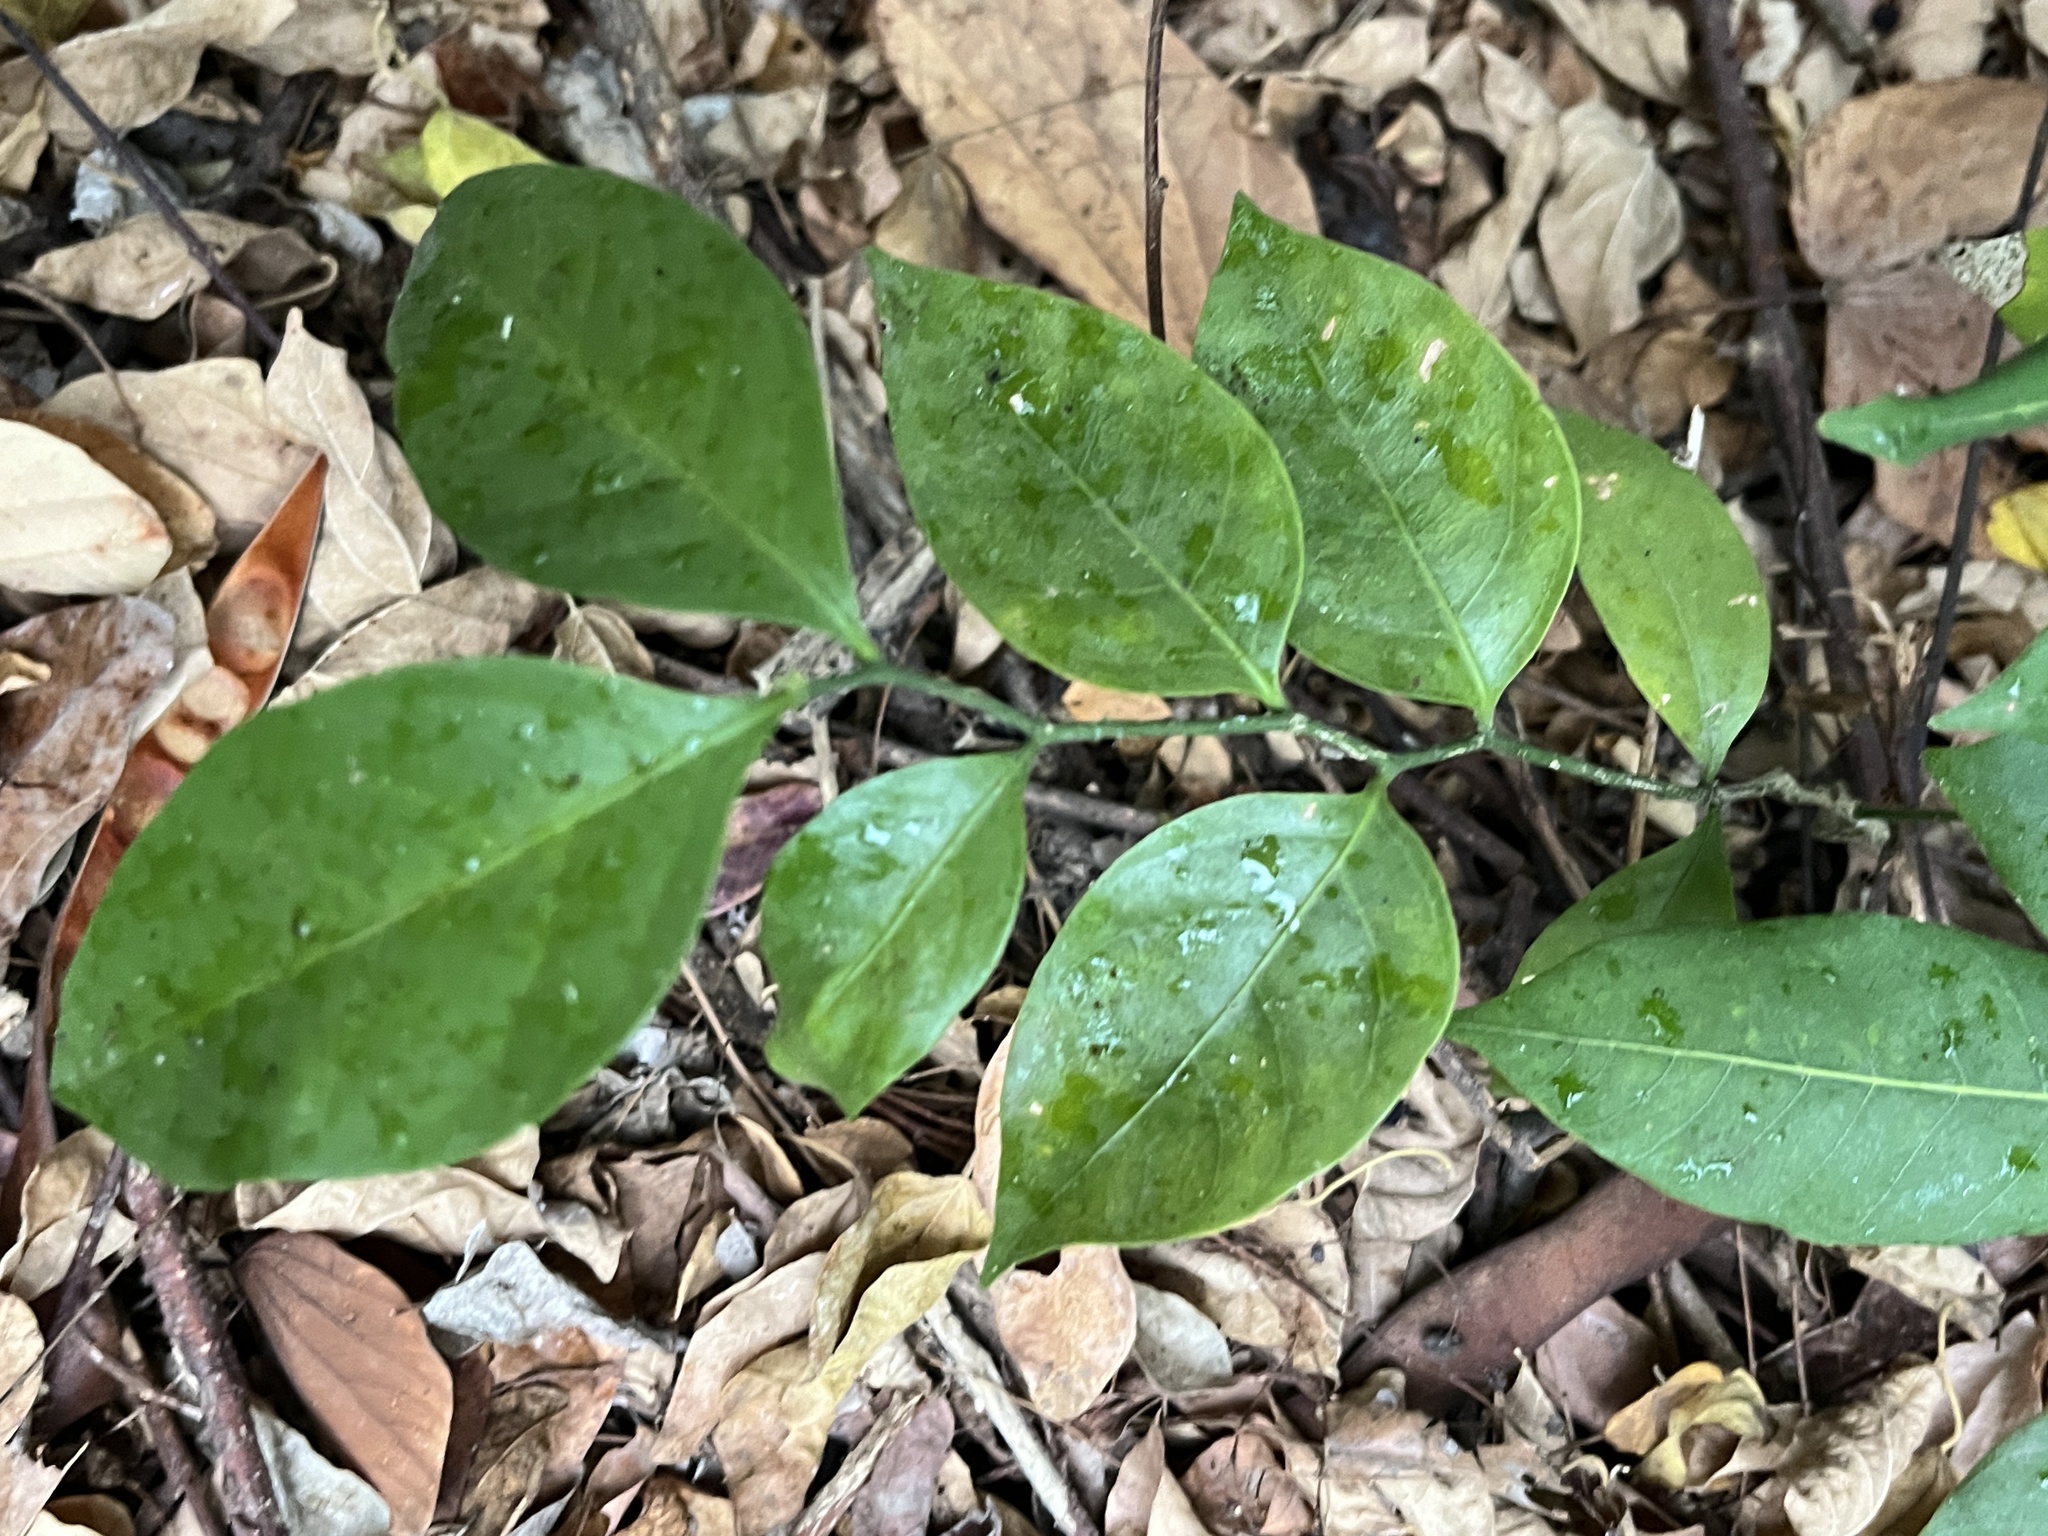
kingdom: Plantae
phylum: Tracheophyta
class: Magnoliopsida
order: Santalales
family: Opiliaceae
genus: Champereia
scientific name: Champereia manillana
